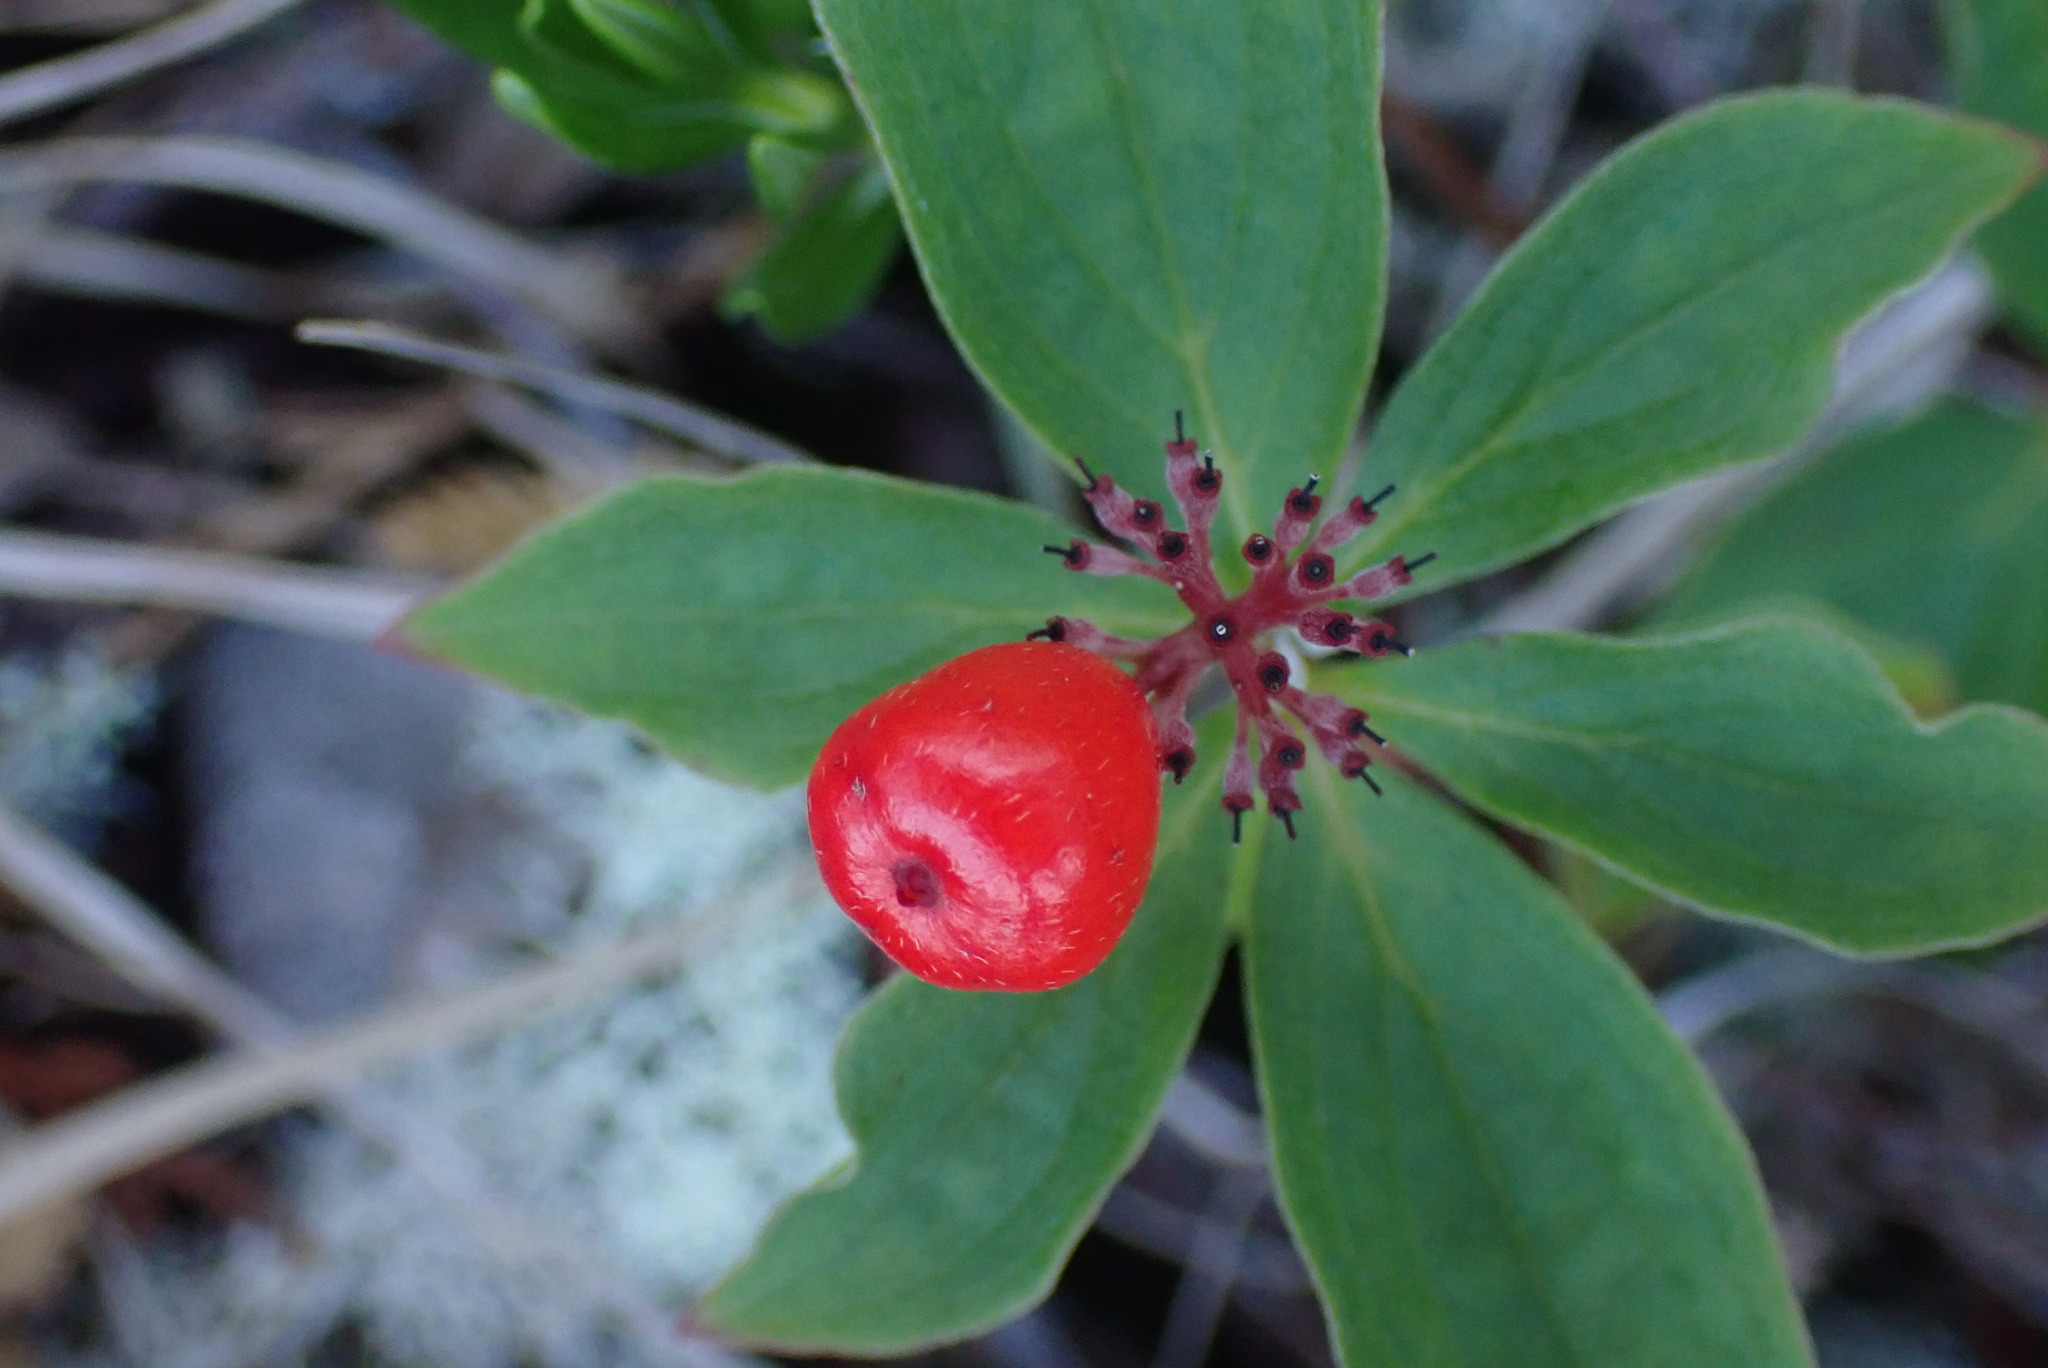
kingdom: Plantae
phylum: Tracheophyta
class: Magnoliopsida
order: Cornales
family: Cornaceae
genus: Cornus
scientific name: Cornus unalaschkensis
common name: Alaska bunchberry
